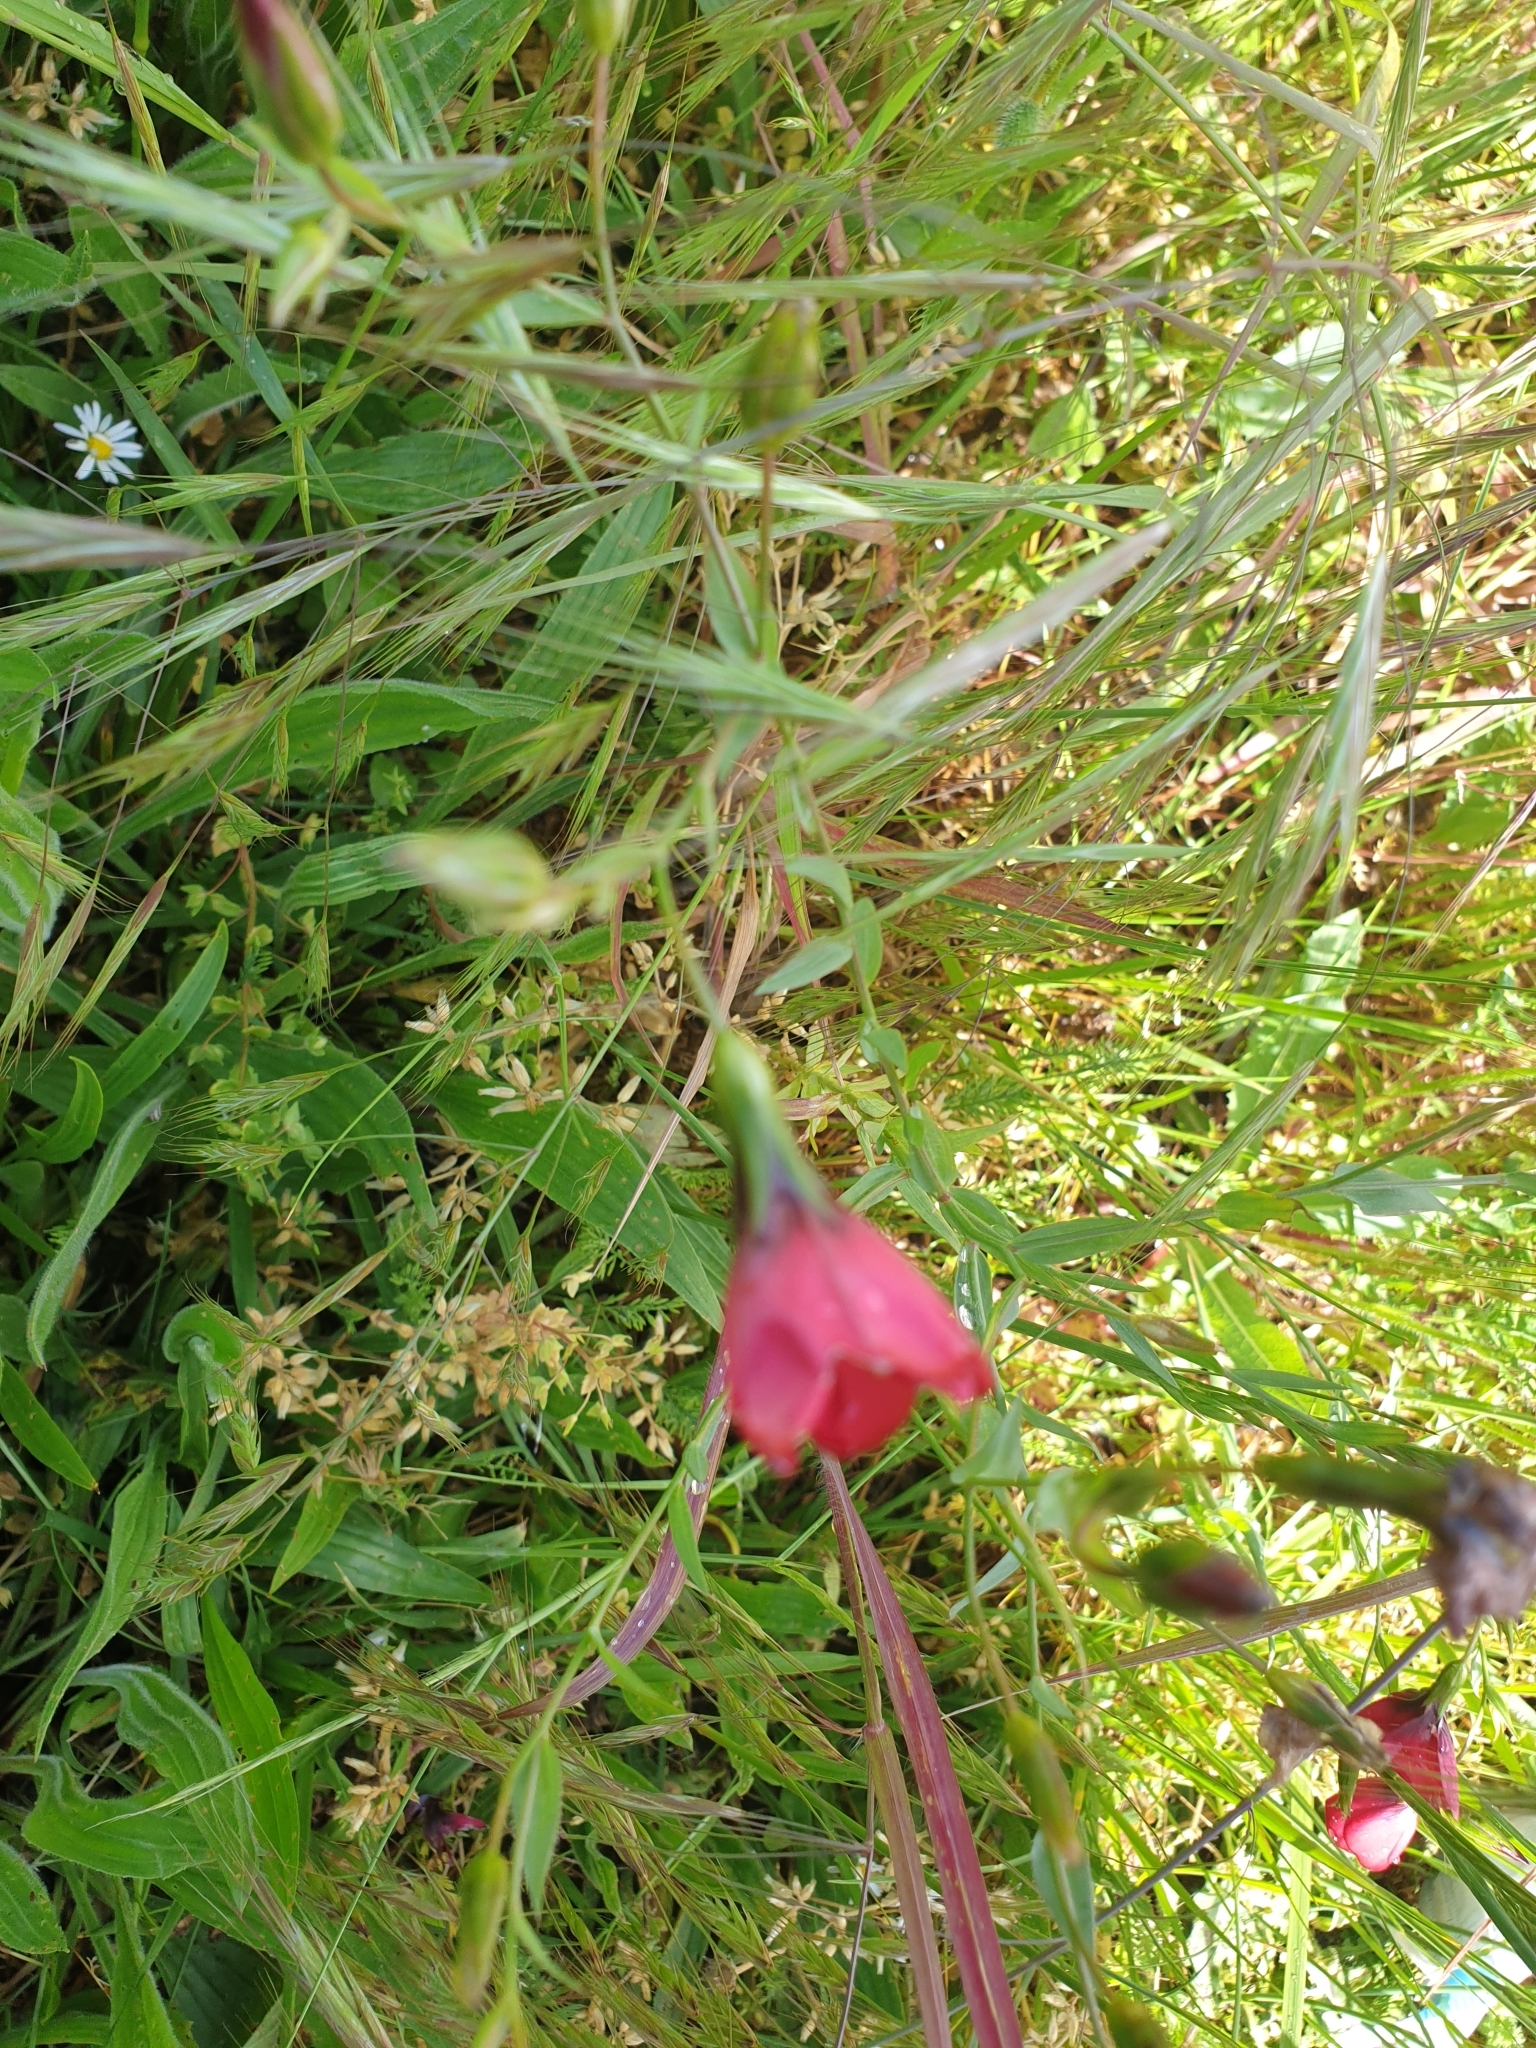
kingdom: Plantae
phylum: Tracheophyta
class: Magnoliopsida
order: Malpighiales
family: Linaceae
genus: Linum
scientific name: Linum grandiflorum
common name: Crimson flax
